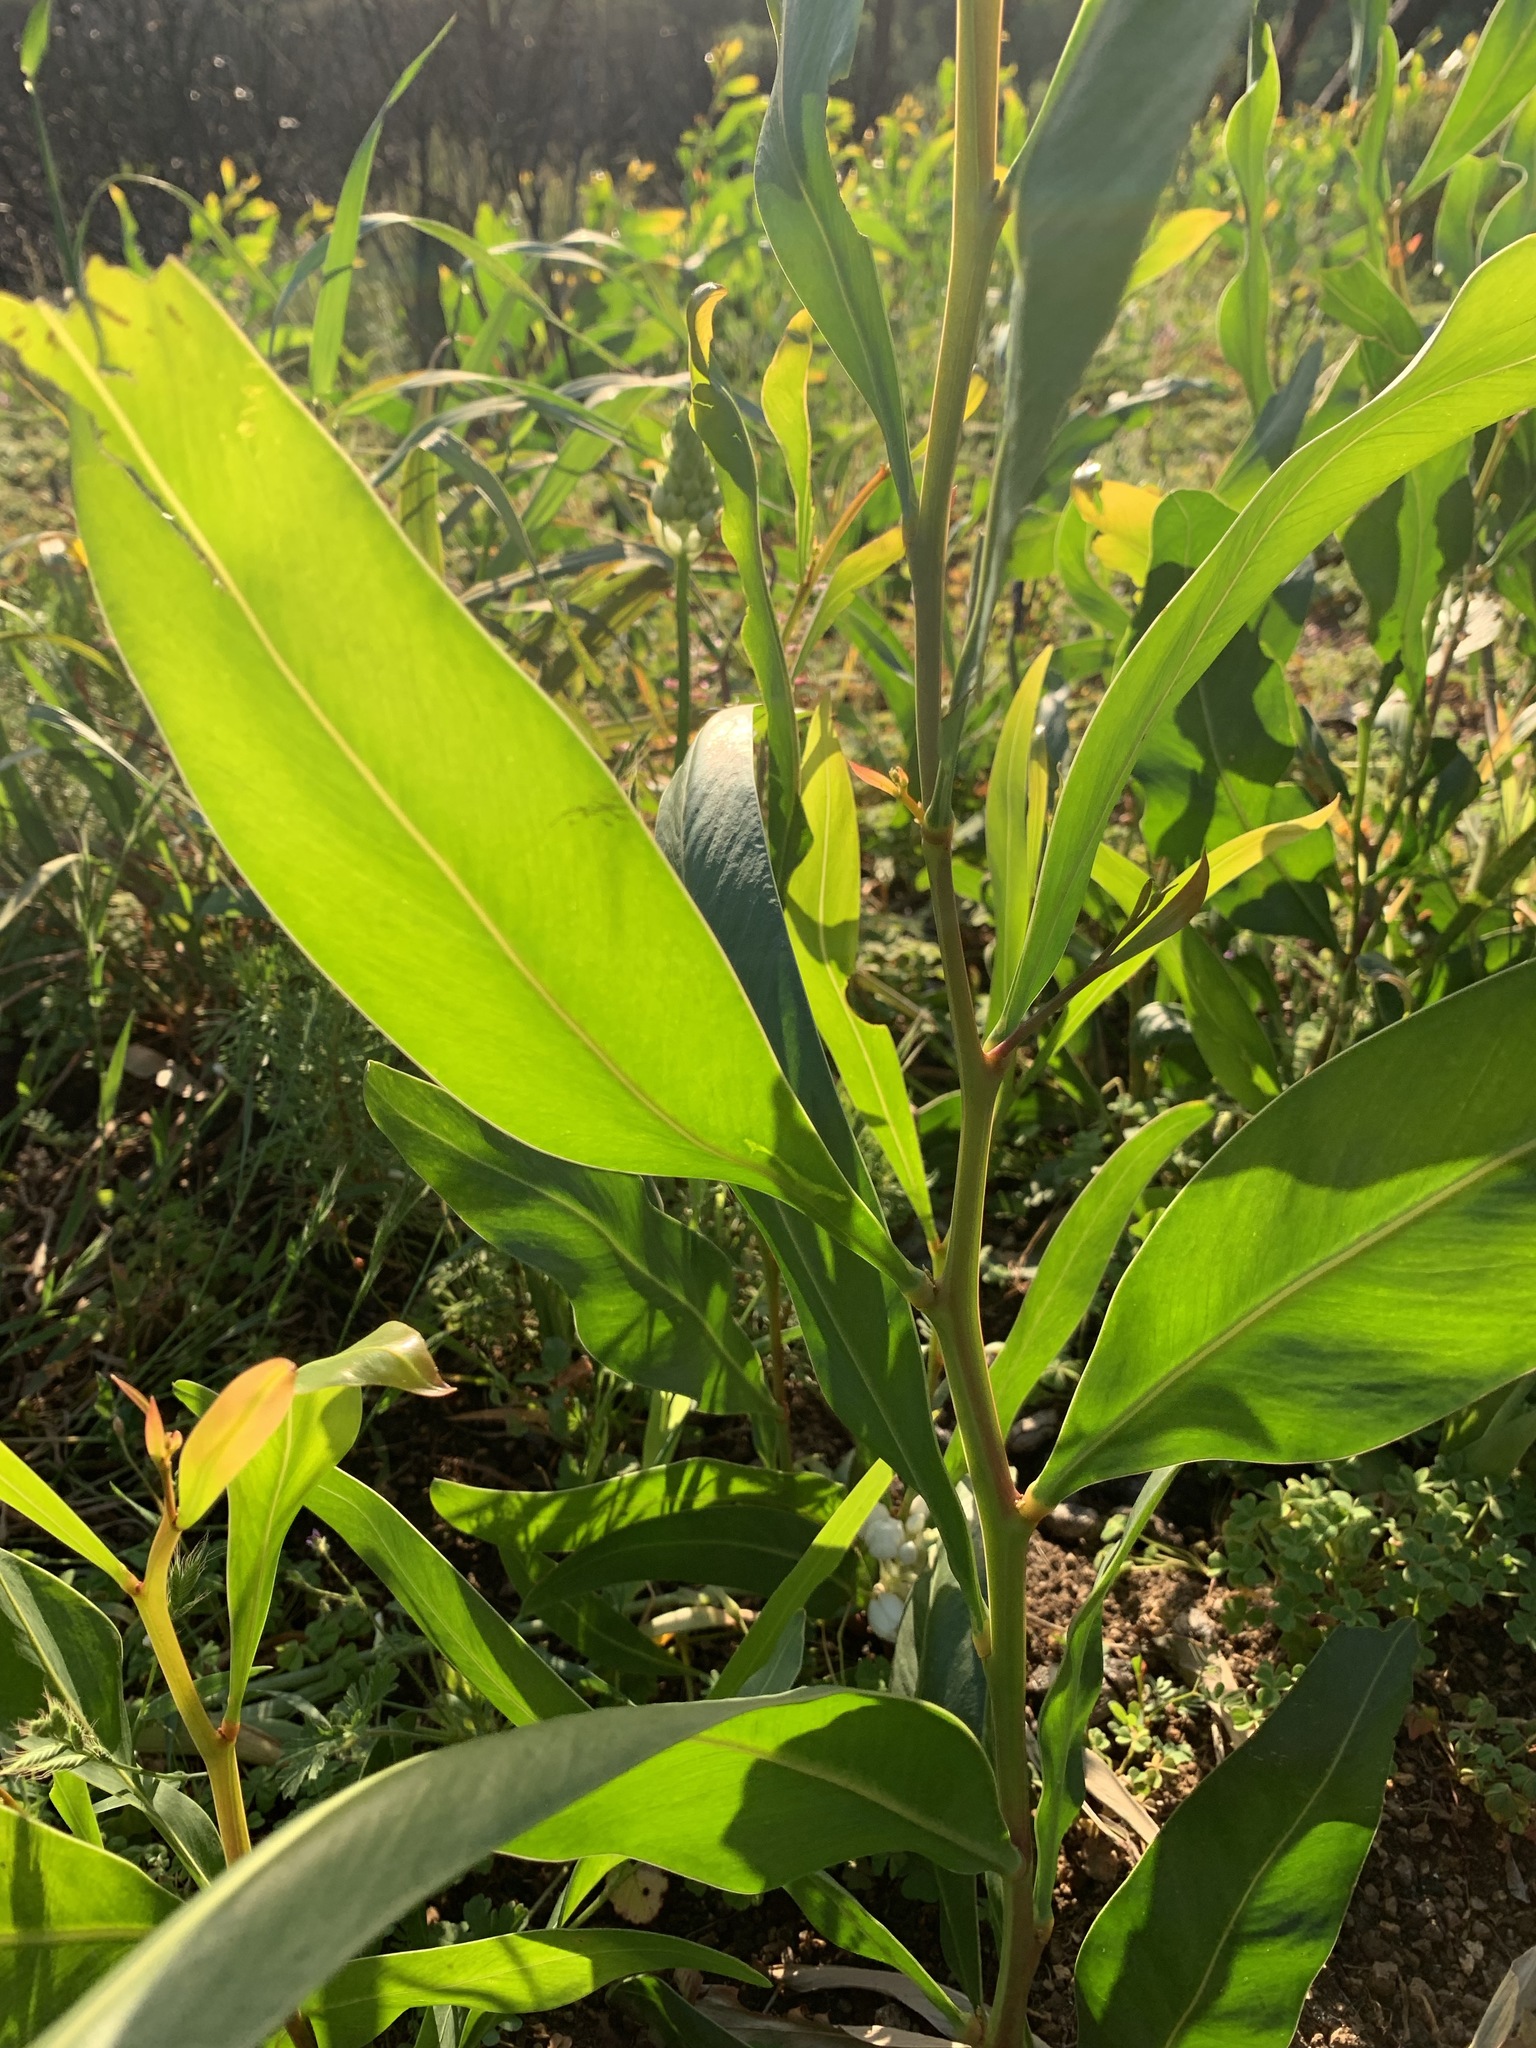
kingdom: Plantae
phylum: Tracheophyta
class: Magnoliopsida
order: Fabales
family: Fabaceae
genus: Acacia
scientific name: Acacia saligna
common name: Orange wattle
